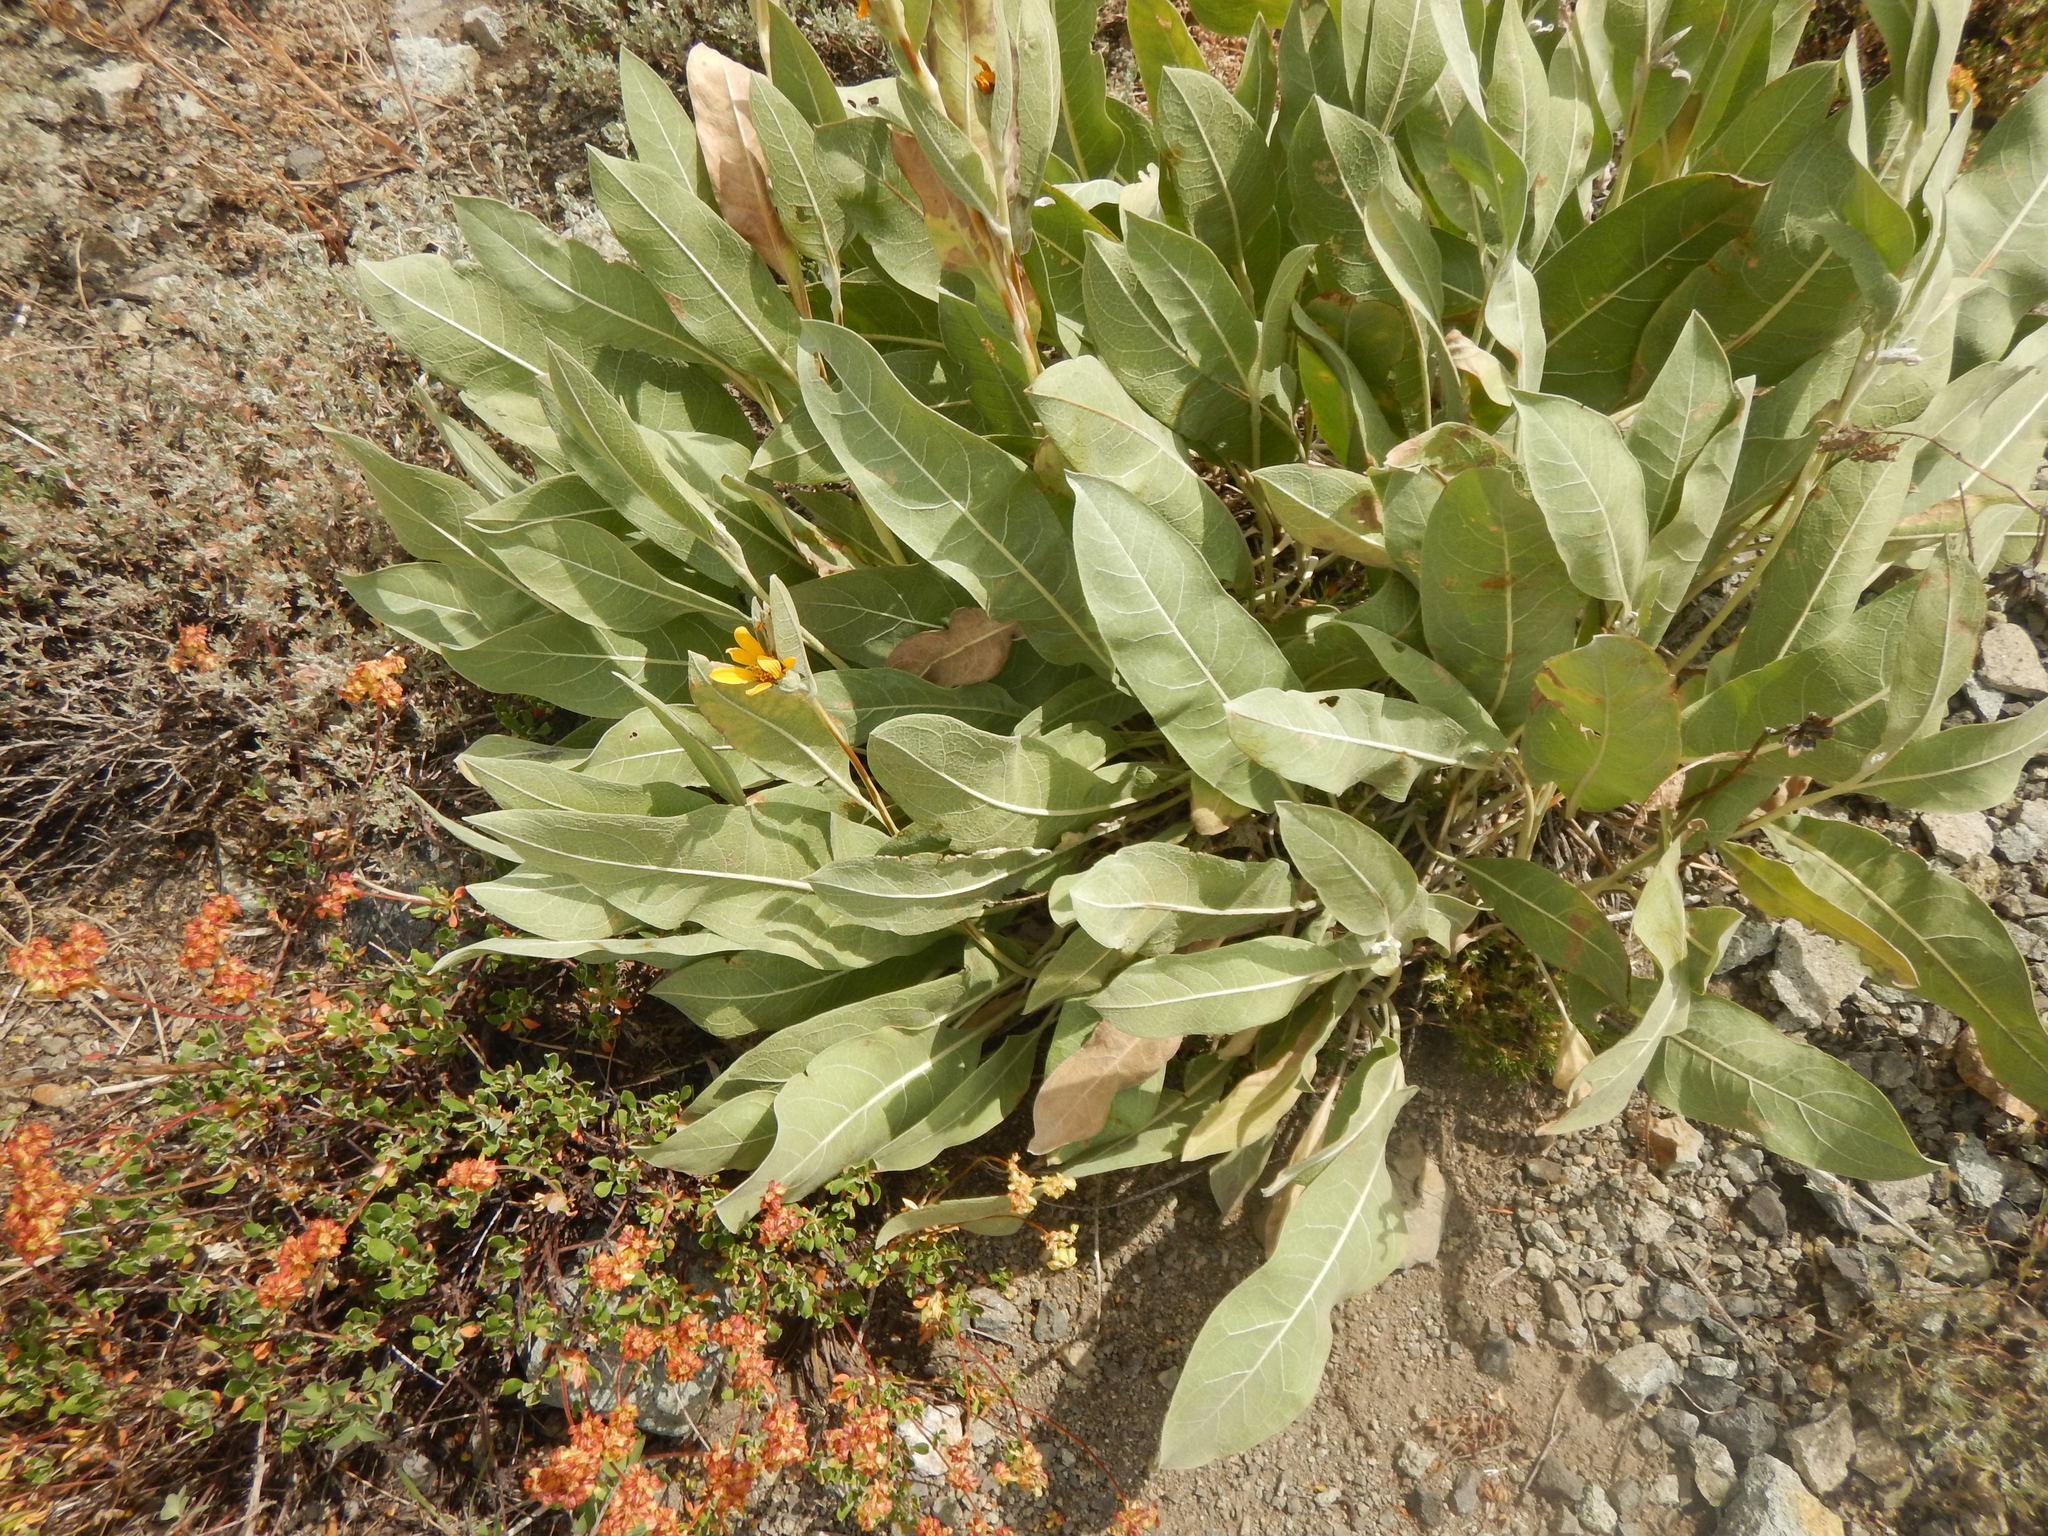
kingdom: Plantae
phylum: Tracheophyta
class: Magnoliopsida
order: Asterales
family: Asteraceae
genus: Wyethia
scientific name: Wyethia mollis
